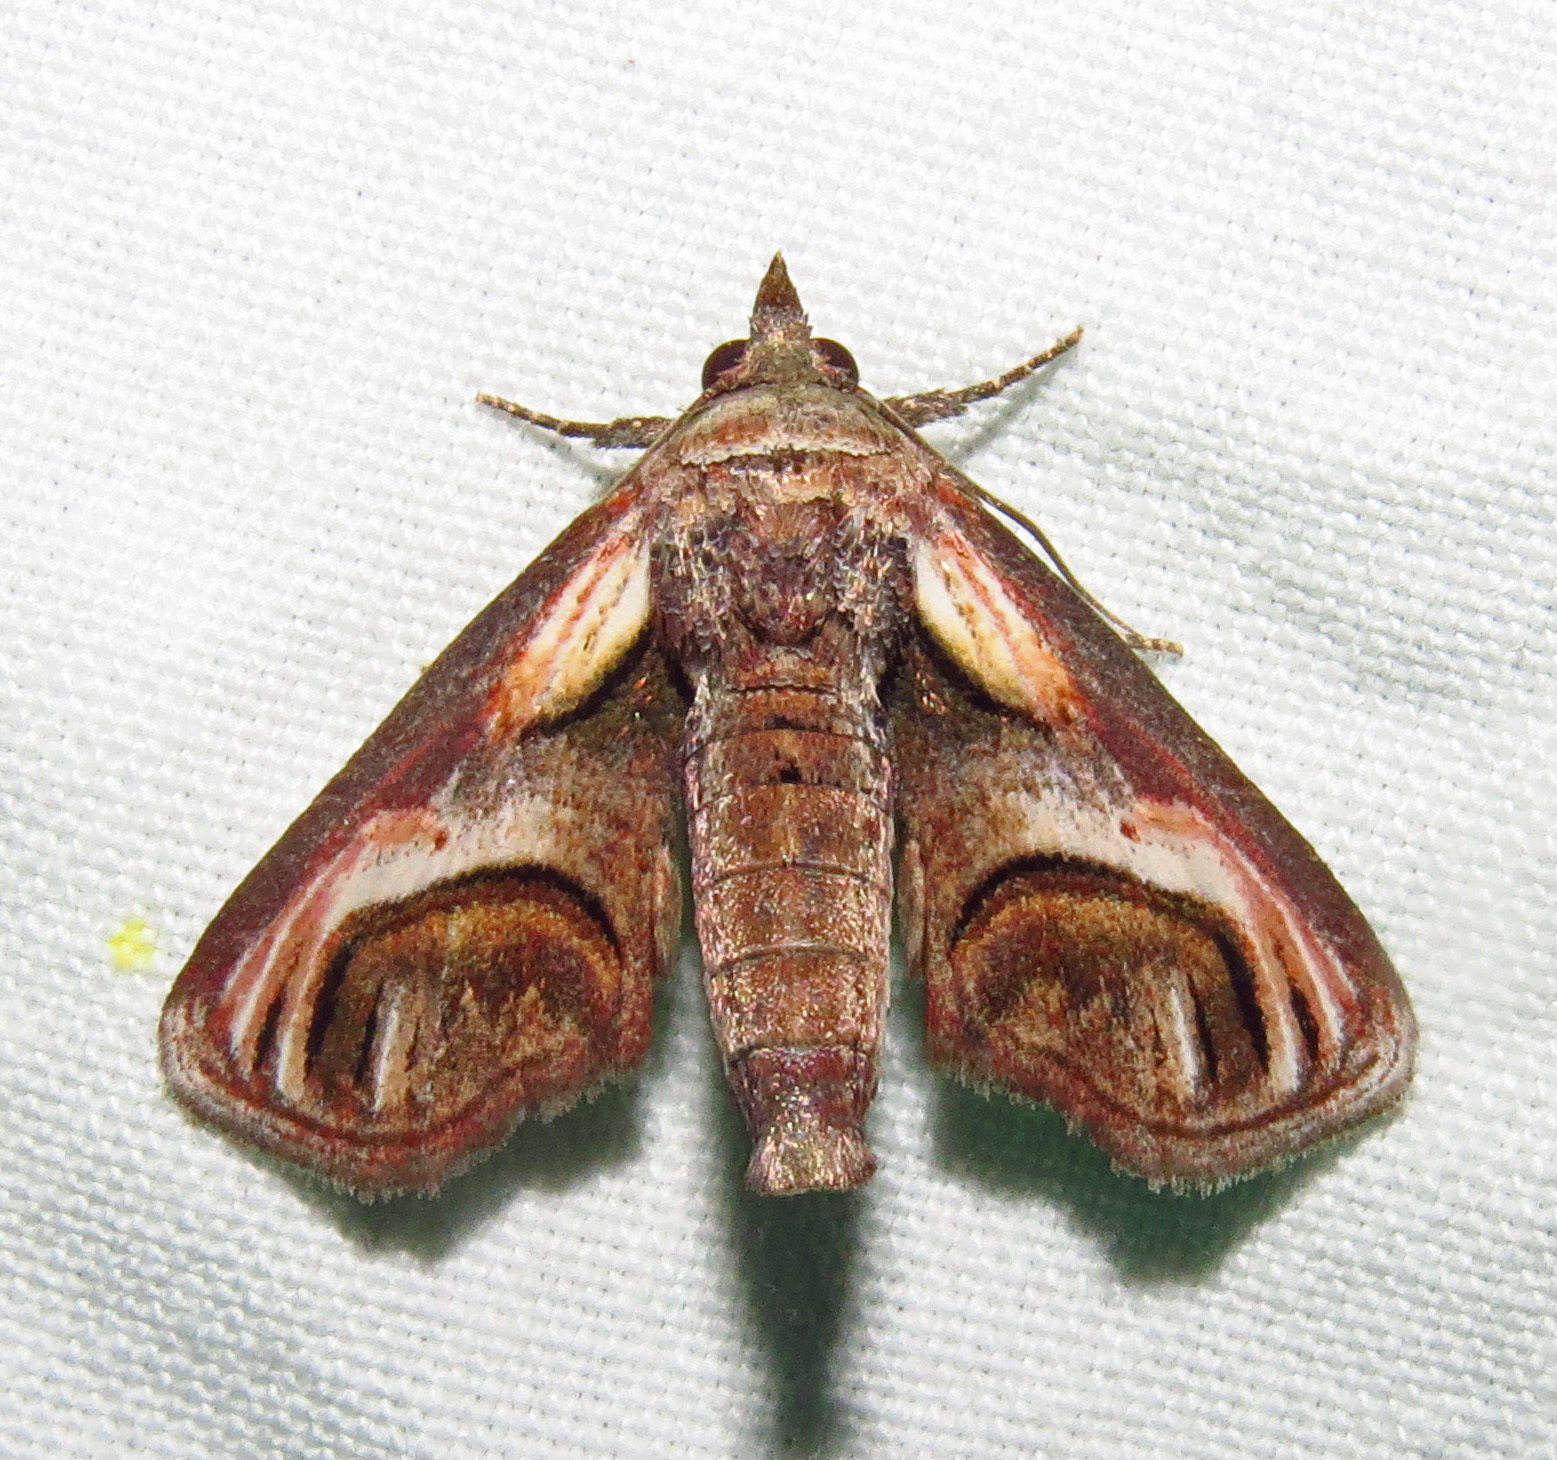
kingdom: Animalia
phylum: Arthropoda
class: Insecta
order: Lepidoptera
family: Euteliidae
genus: Paectes
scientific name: Paectes oculatrix
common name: Eyed paectes moth
